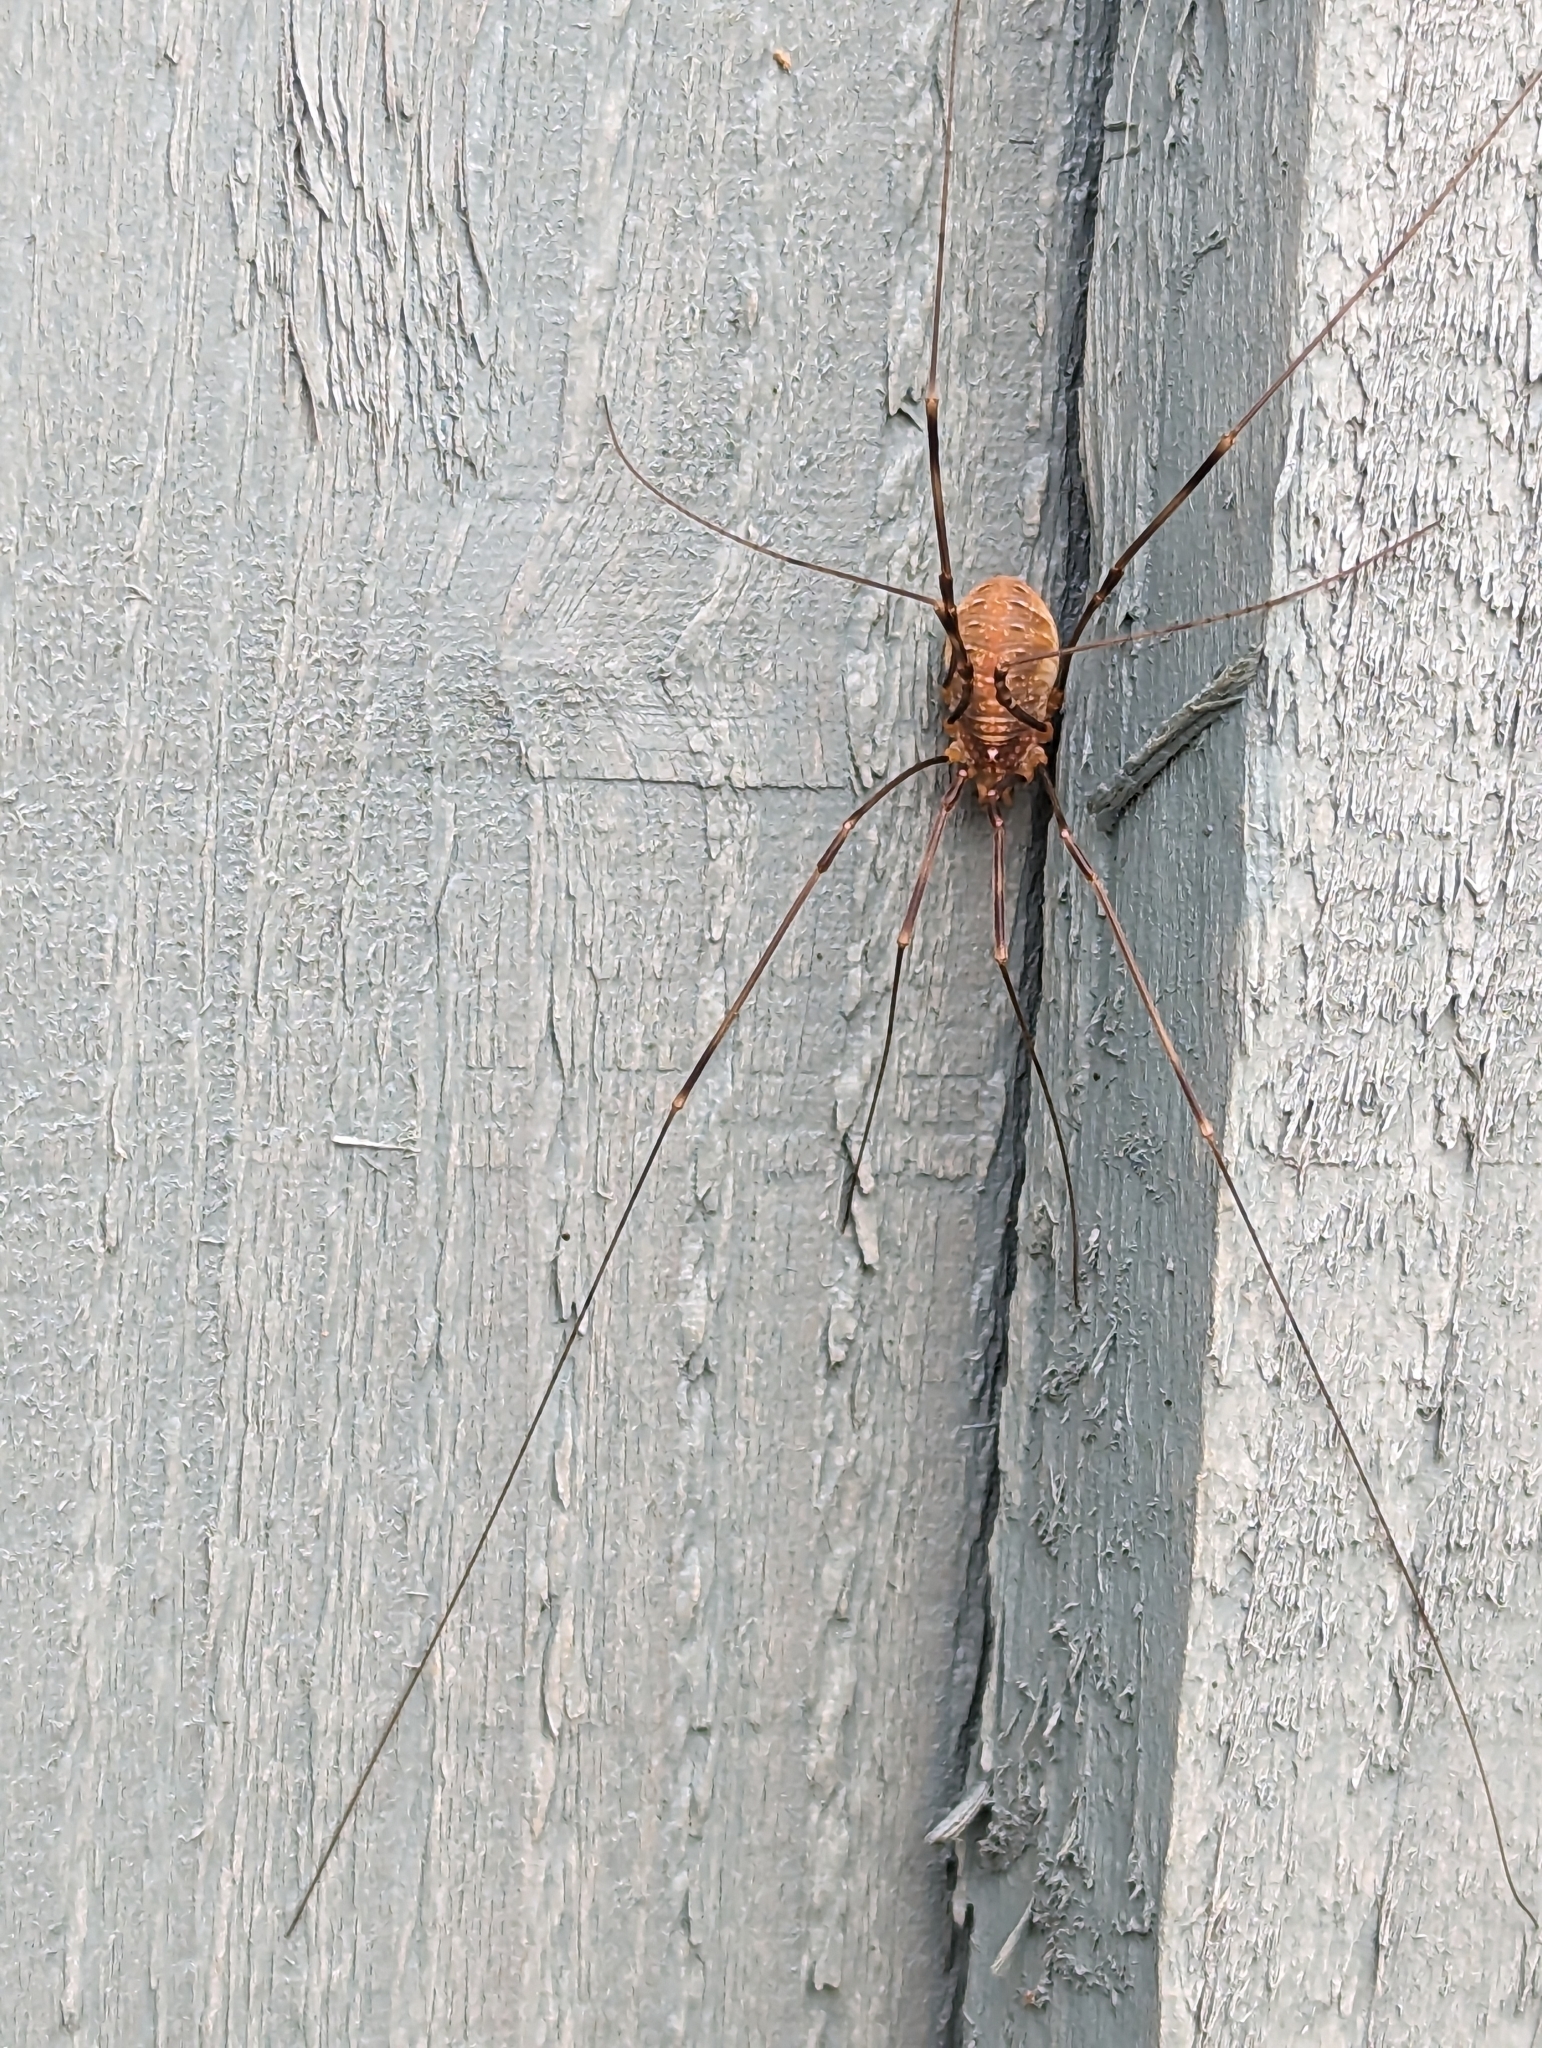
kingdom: Animalia
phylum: Arthropoda
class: Arachnida
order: Opiliones
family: Phalangiidae
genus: Opilio
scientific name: Opilio canestrinii
